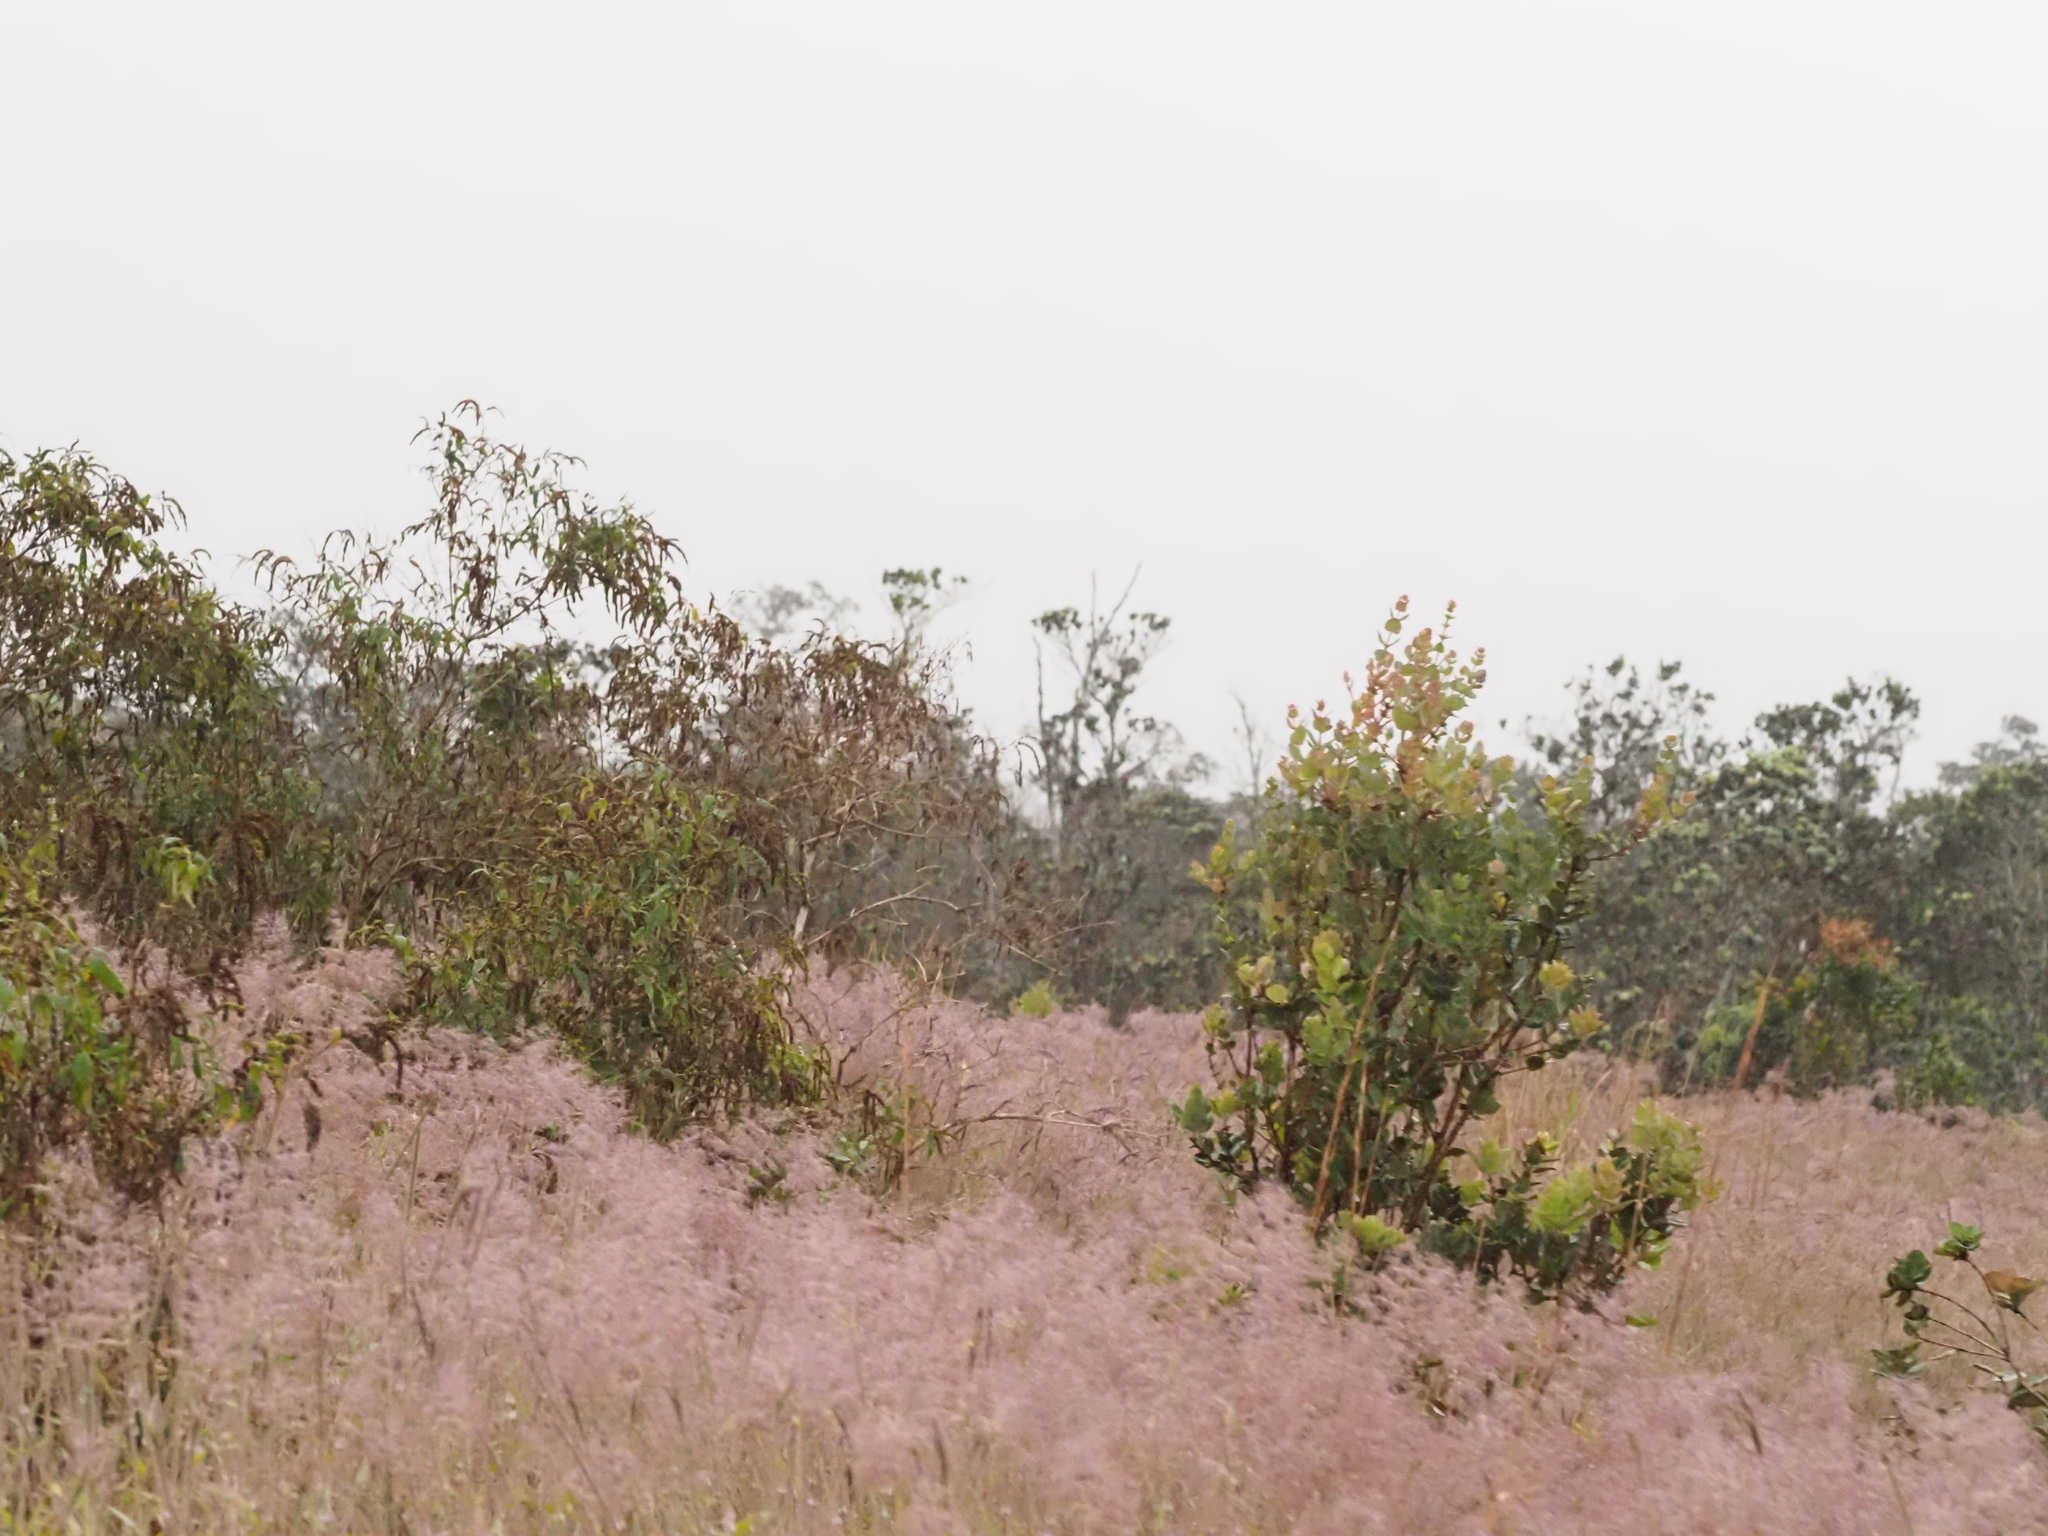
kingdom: Plantae
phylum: Tracheophyta
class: Liliopsida
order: Poales
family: Poaceae
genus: Melinis
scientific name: Melinis minutiflora
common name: Molassesgrass
